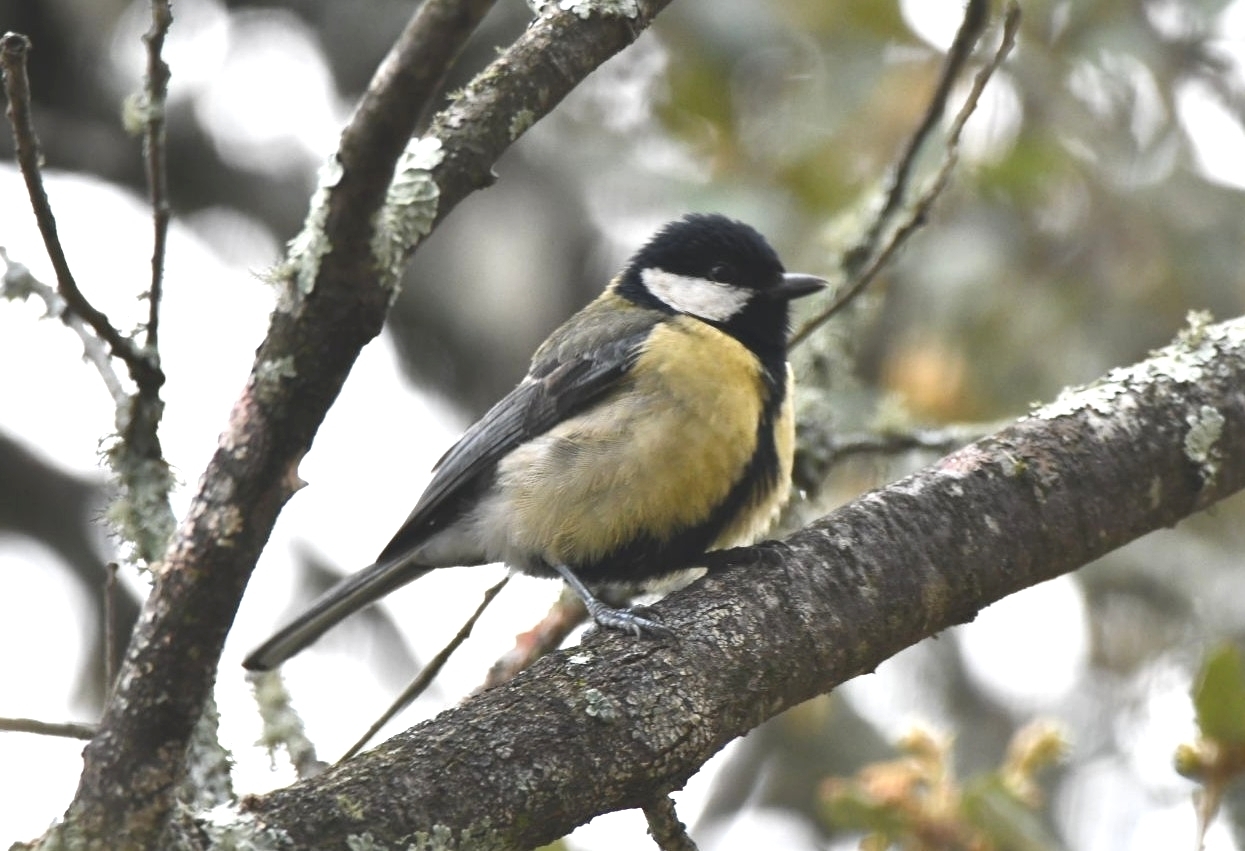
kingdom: Animalia
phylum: Chordata
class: Aves
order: Passeriformes
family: Paridae
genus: Parus
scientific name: Parus major
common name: Great tit
